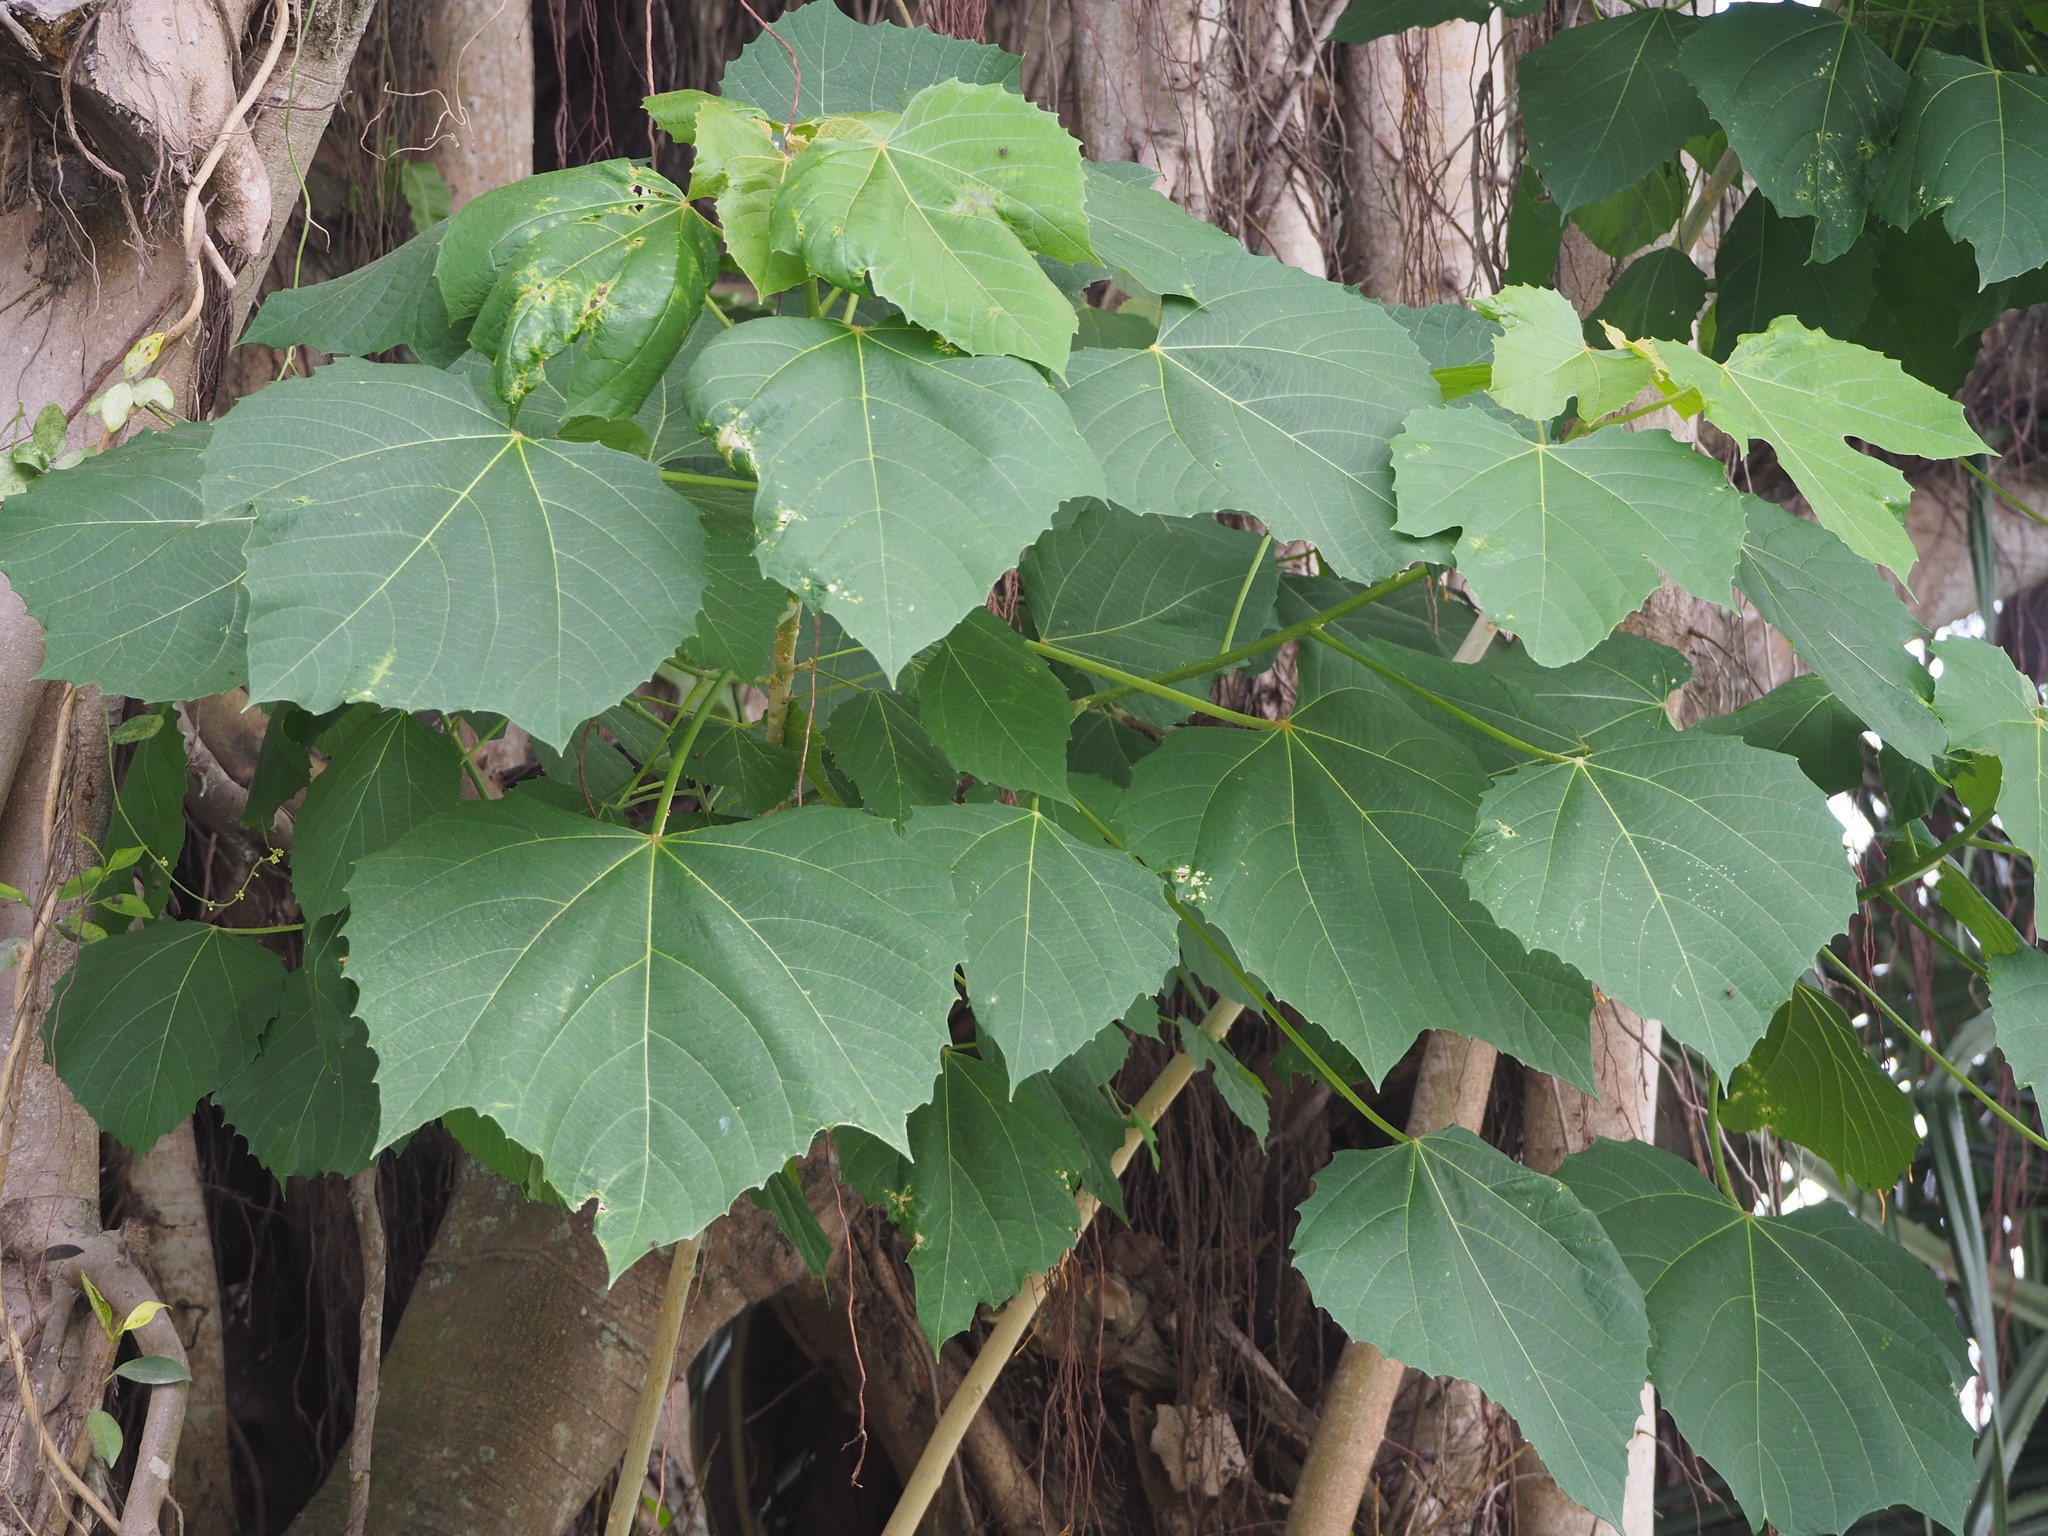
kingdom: Plantae
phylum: Tracheophyta
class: Magnoliopsida
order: Malpighiales
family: Euphorbiaceae
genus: Melanolepis
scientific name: Melanolepis multiglandulosa
